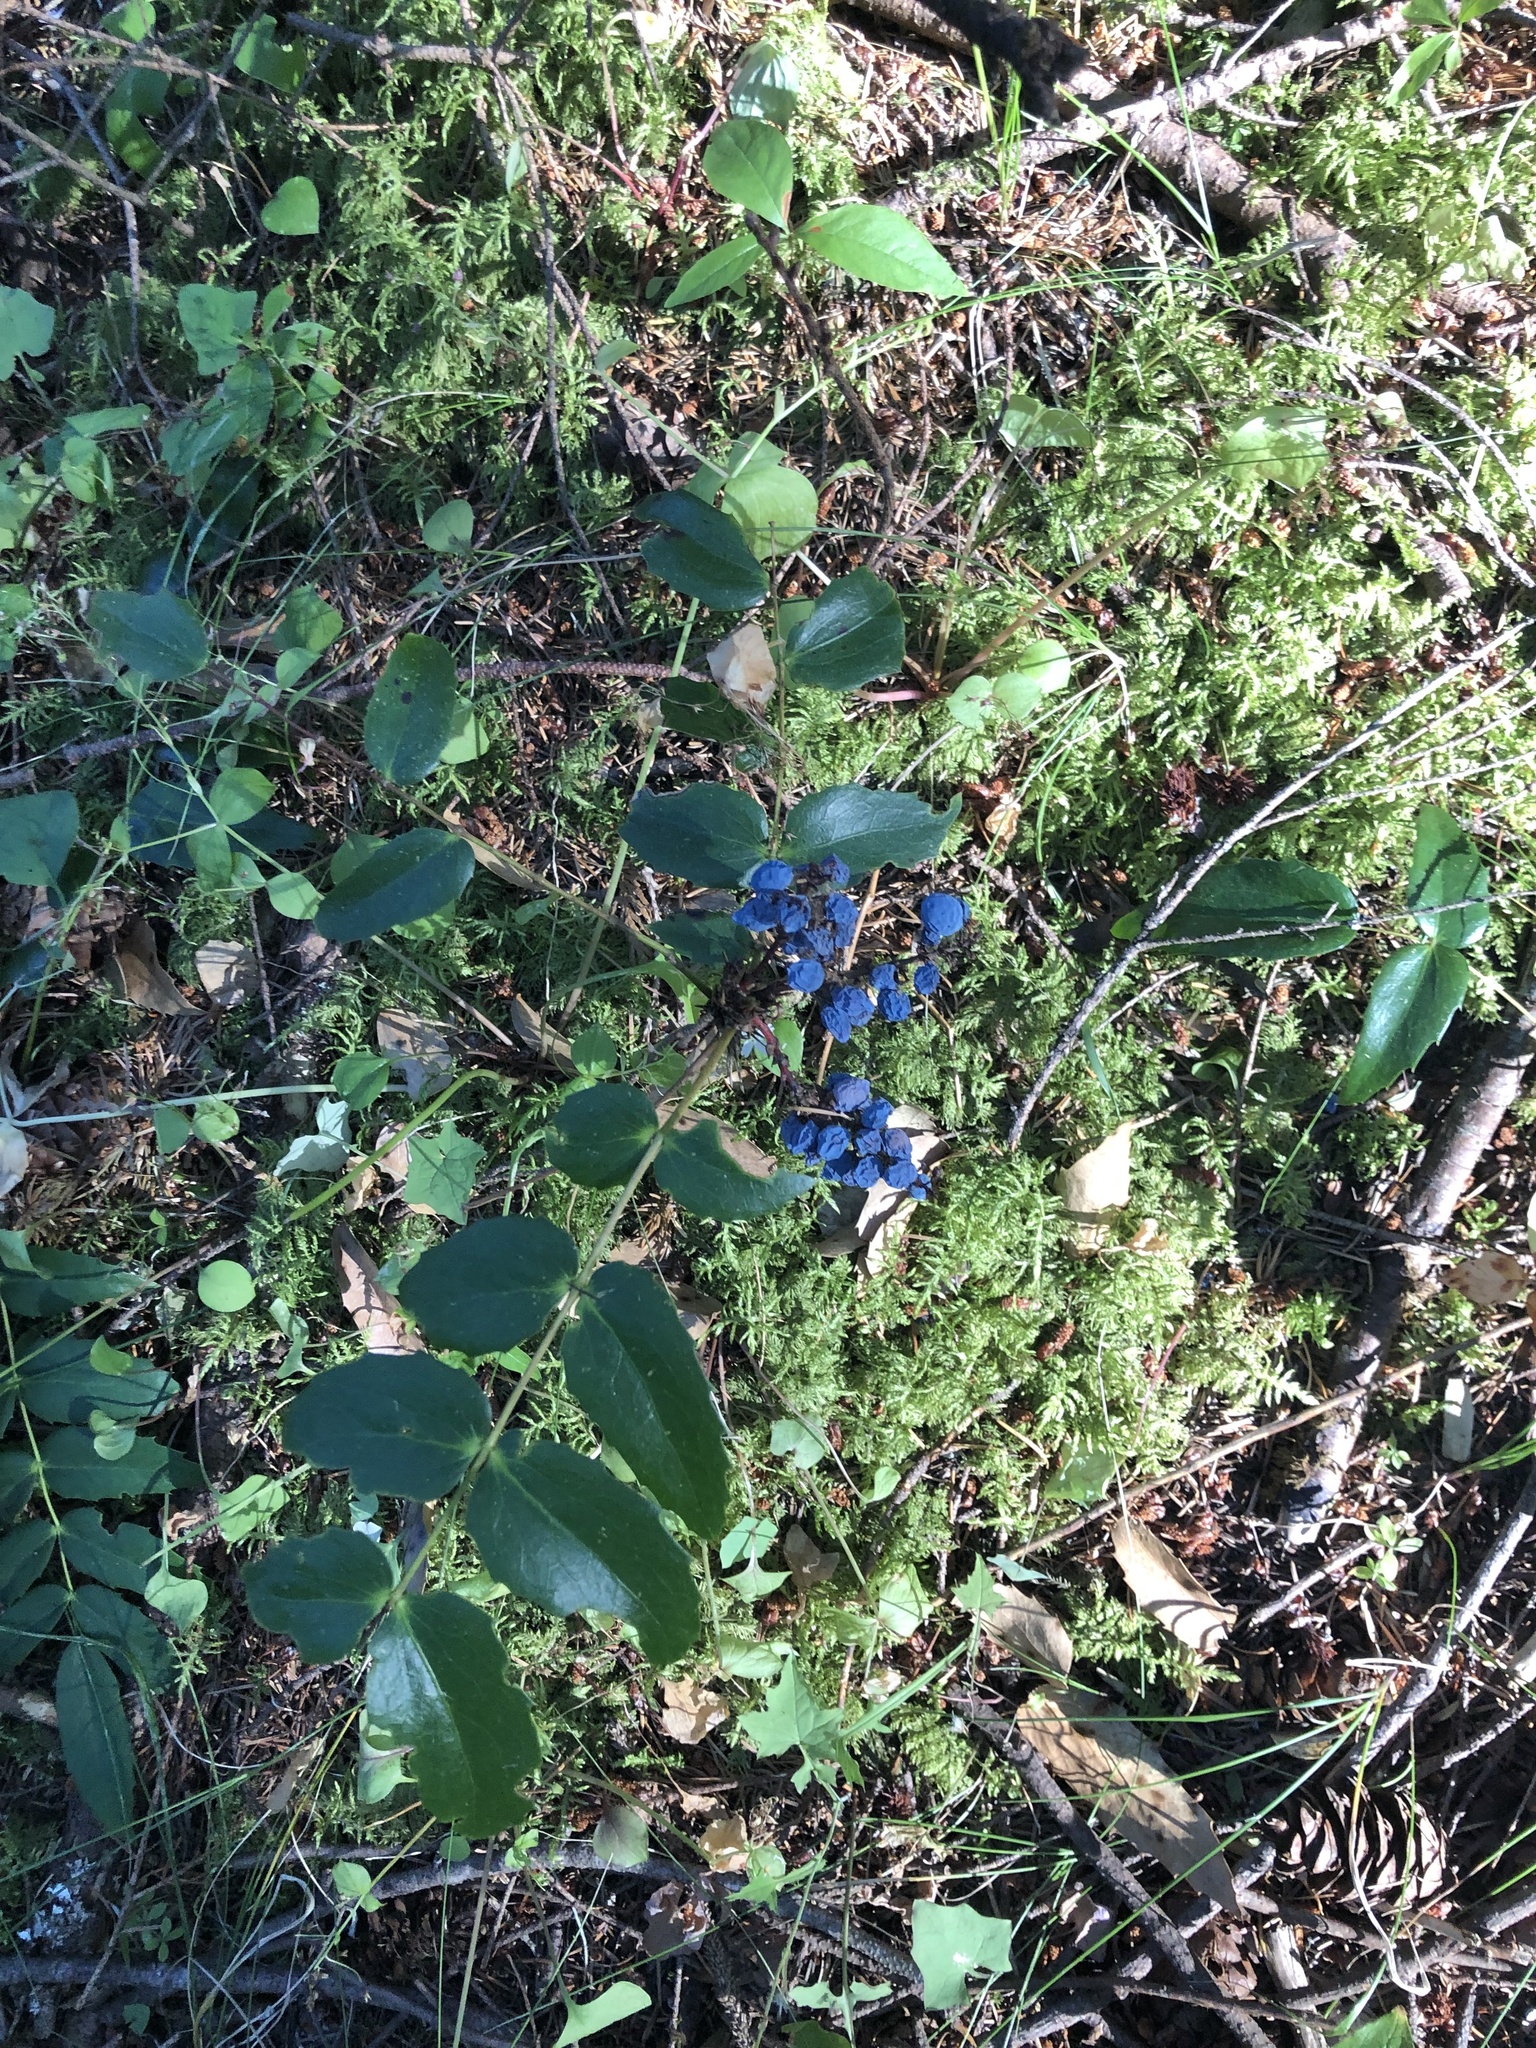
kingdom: Plantae
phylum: Tracheophyta
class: Magnoliopsida
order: Ranunculales
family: Berberidaceae
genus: Mahonia
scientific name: Mahonia nervosa
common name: Cascade oregon-grape
